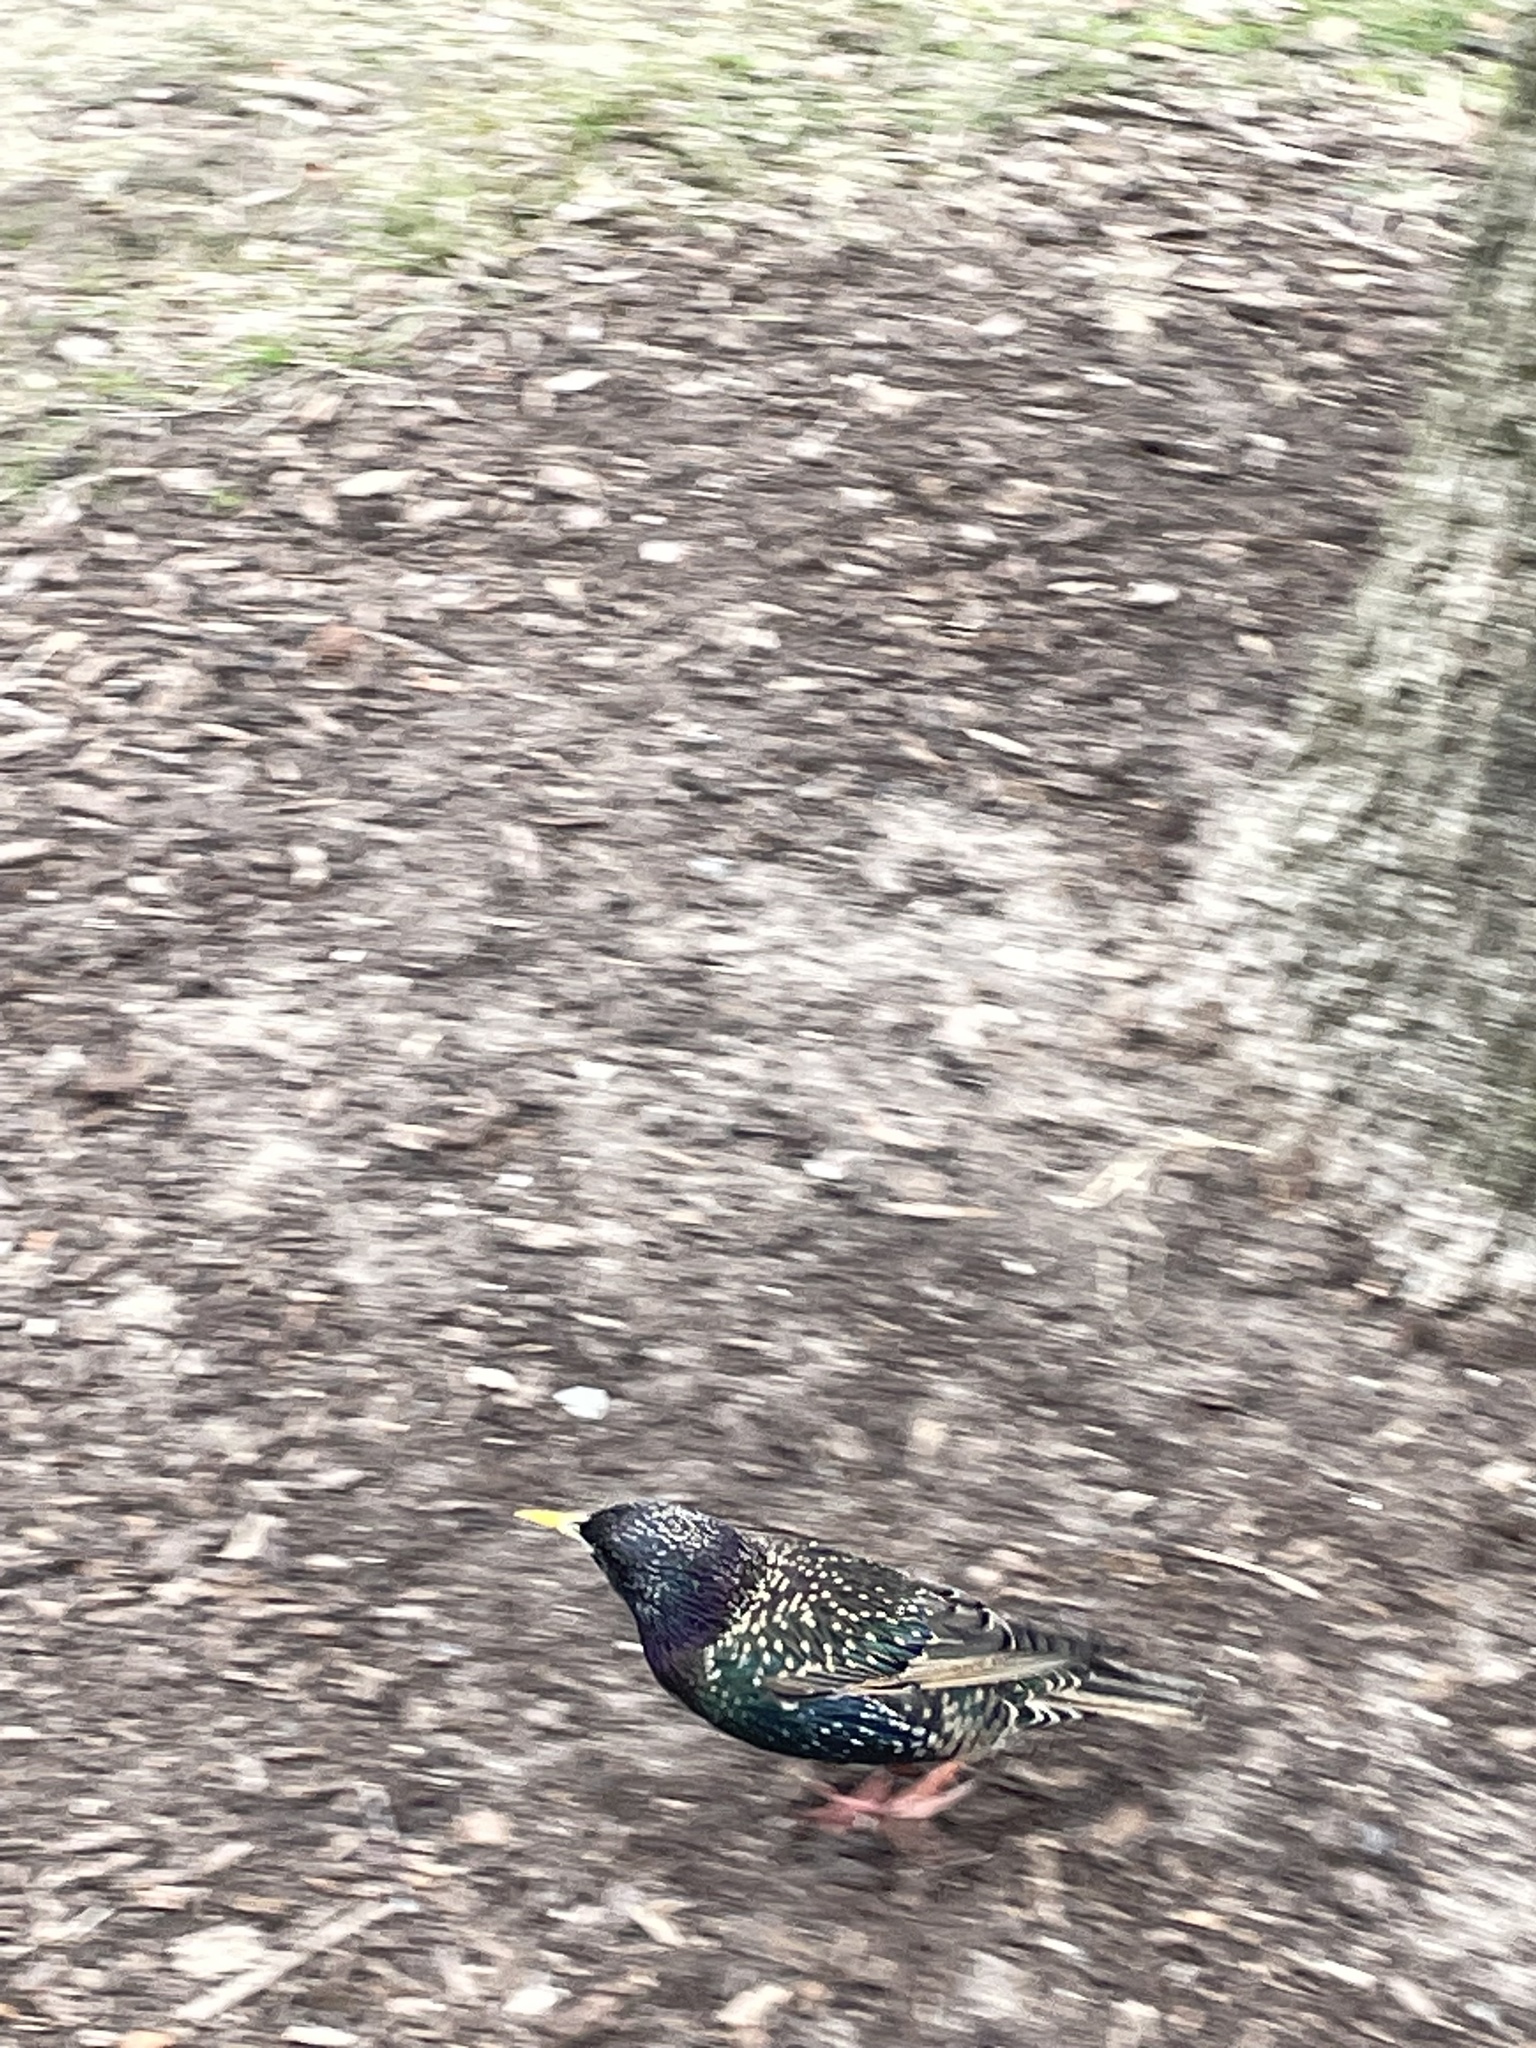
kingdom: Animalia
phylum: Chordata
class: Aves
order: Passeriformes
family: Sturnidae
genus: Sturnus
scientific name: Sturnus vulgaris
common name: Common starling
